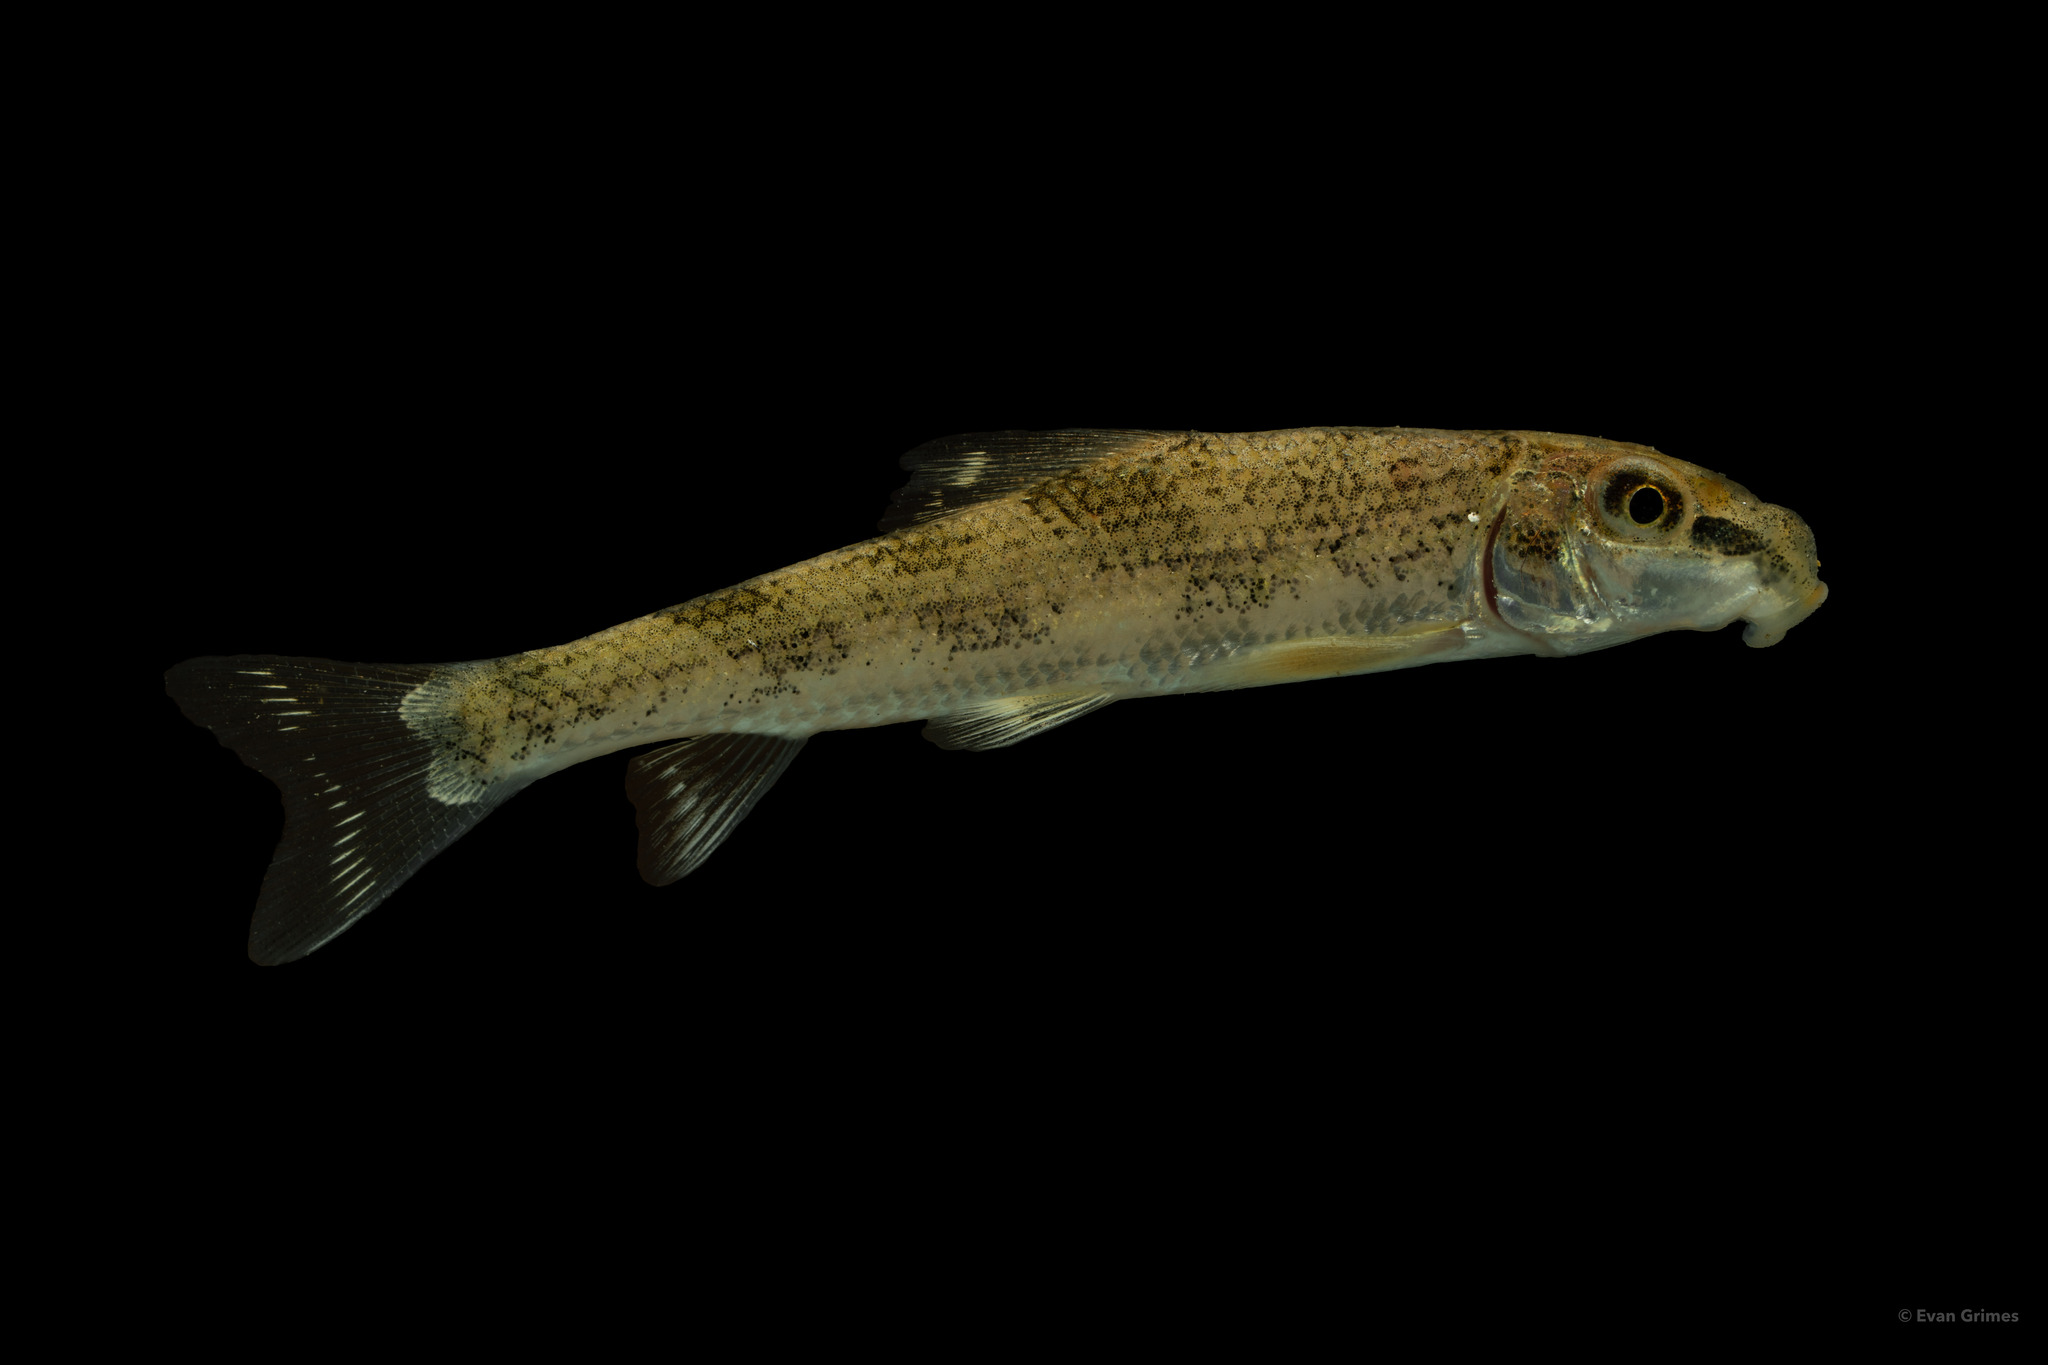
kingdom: Animalia
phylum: Chordata
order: Cypriniformes
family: Catostomidae
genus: Hypentelium
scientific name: Hypentelium nigricans
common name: Northern hog sucker
